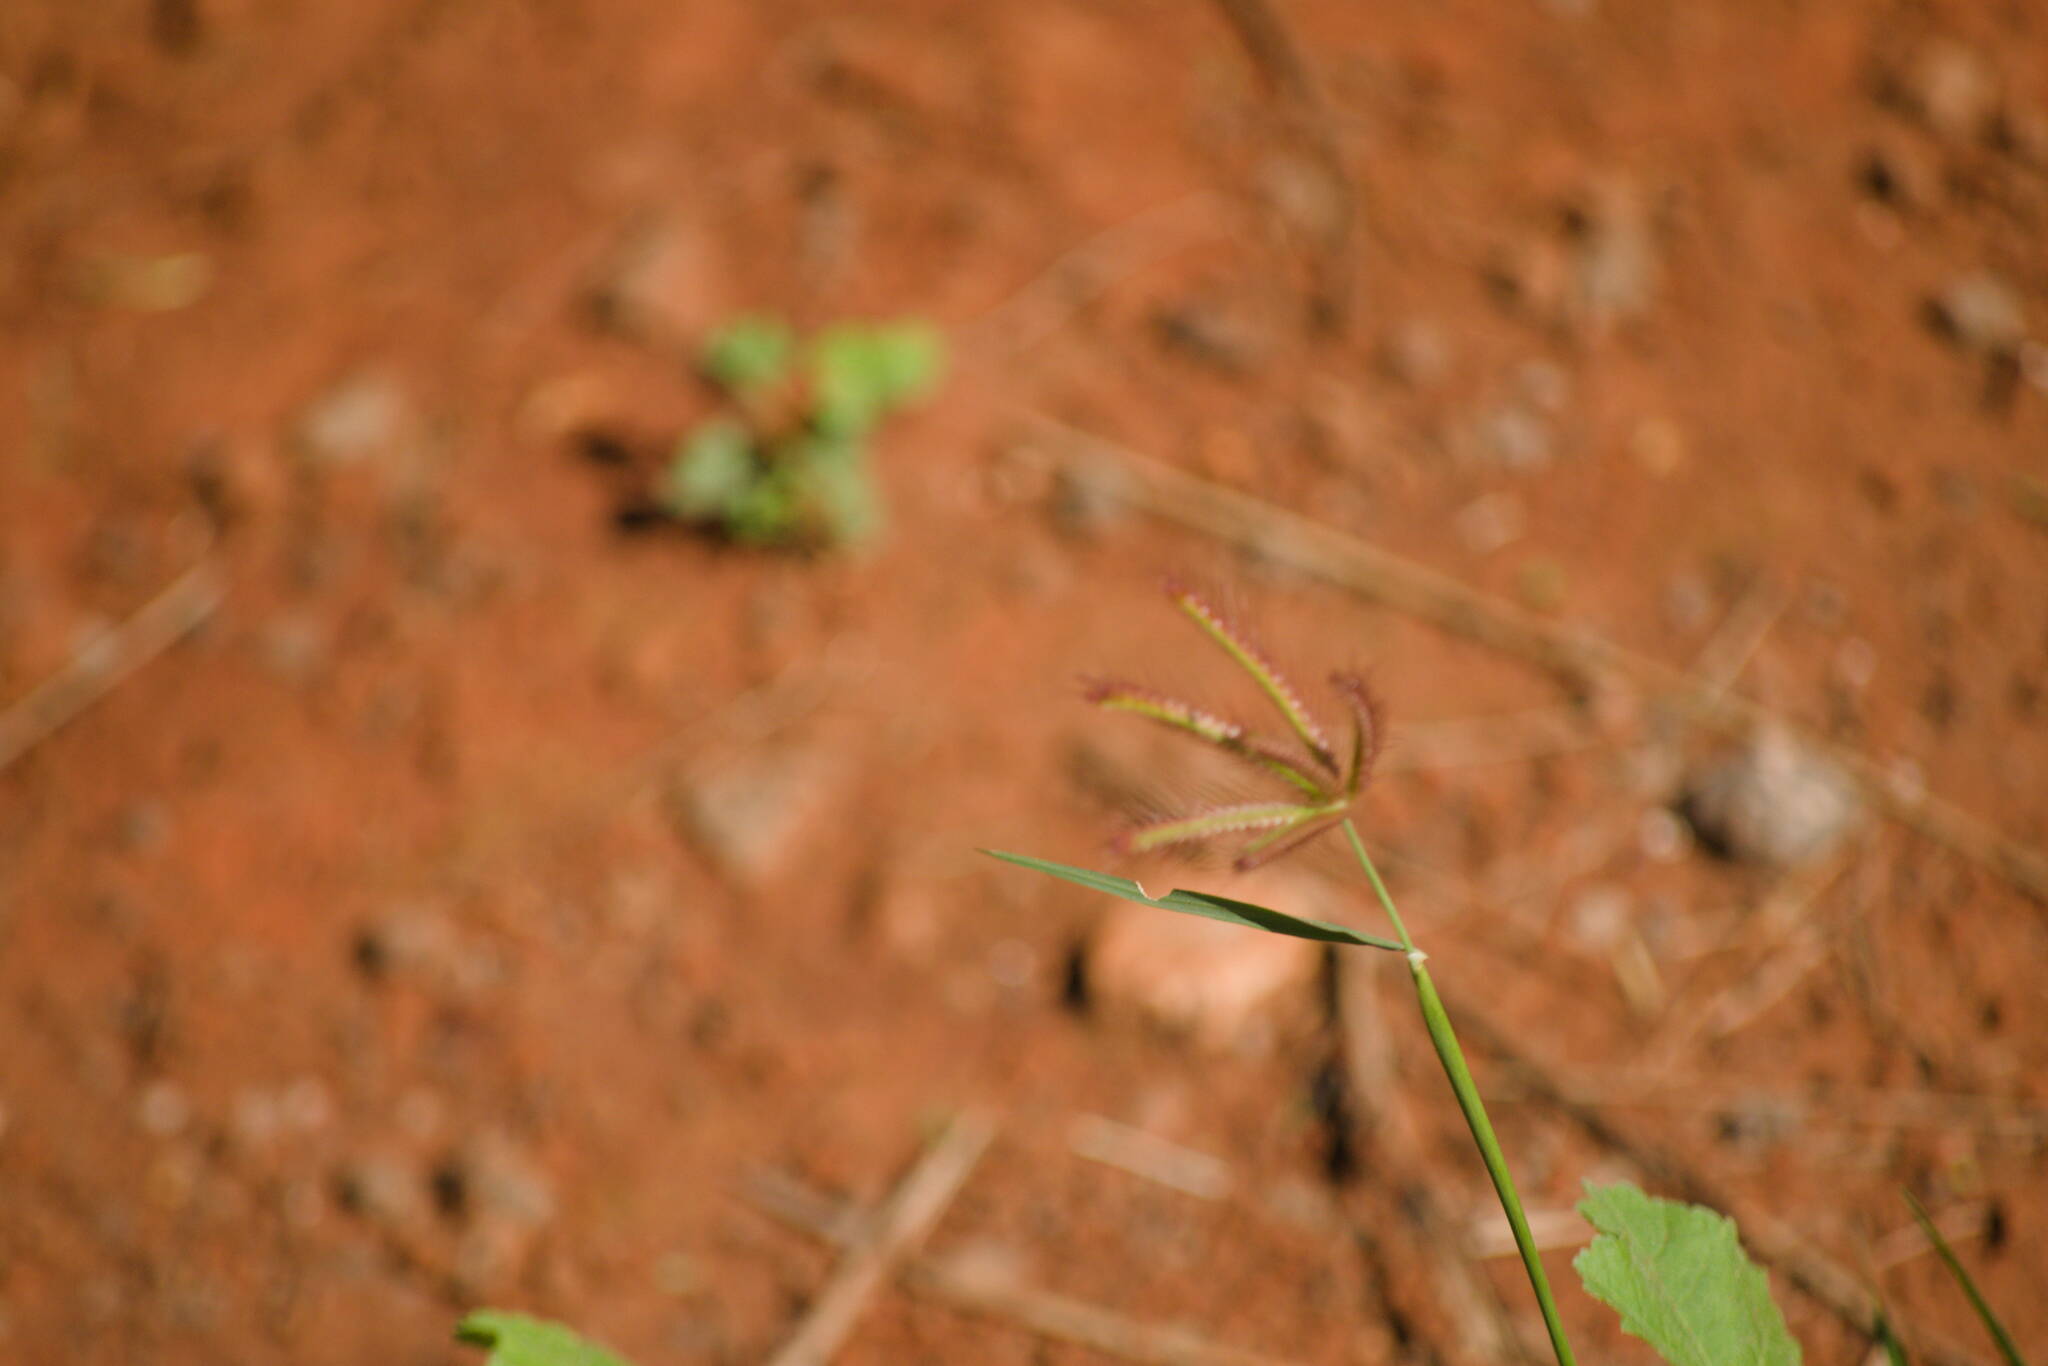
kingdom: Plantae
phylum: Tracheophyta
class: Liliopsida
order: Poales
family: Poaceae
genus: Chloris
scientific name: Chloris barbata
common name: Swollen fingergrass
